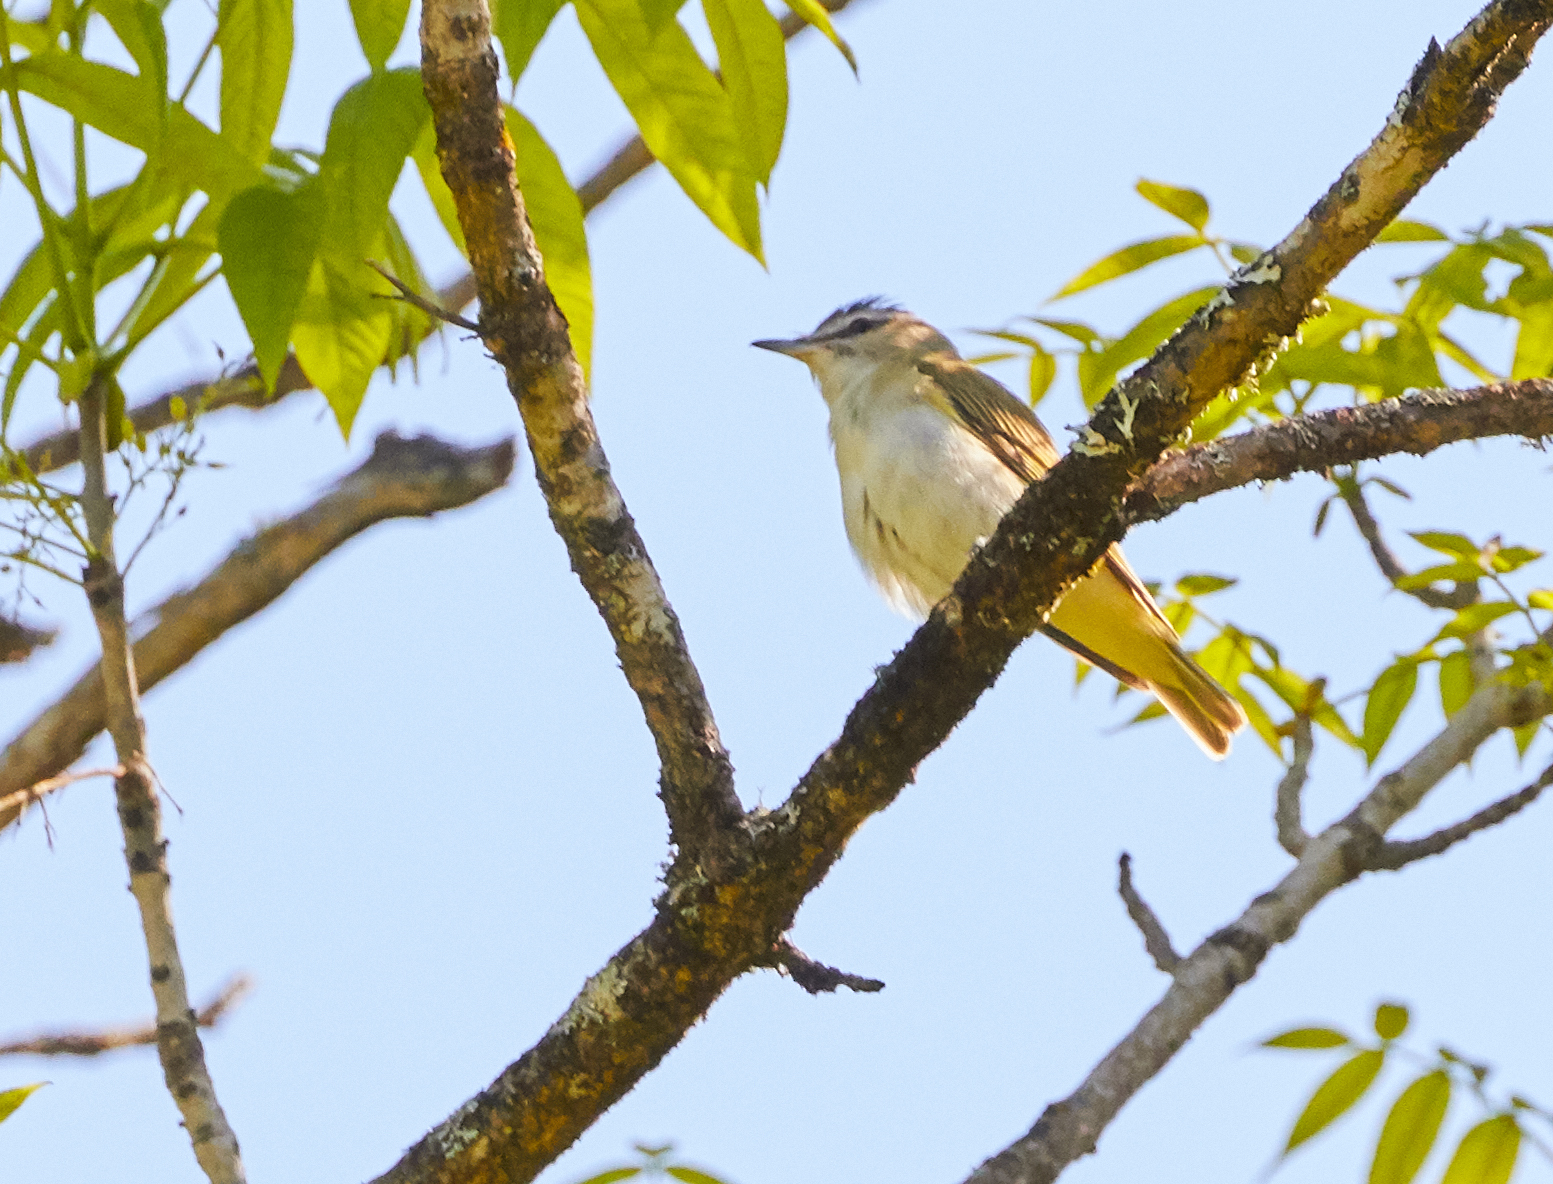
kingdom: Animalia
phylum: Chordata
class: Aves
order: Passeriformes
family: Vireonidae
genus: Vireo
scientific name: Vireo olivaceus
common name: Red-eyed vireo
